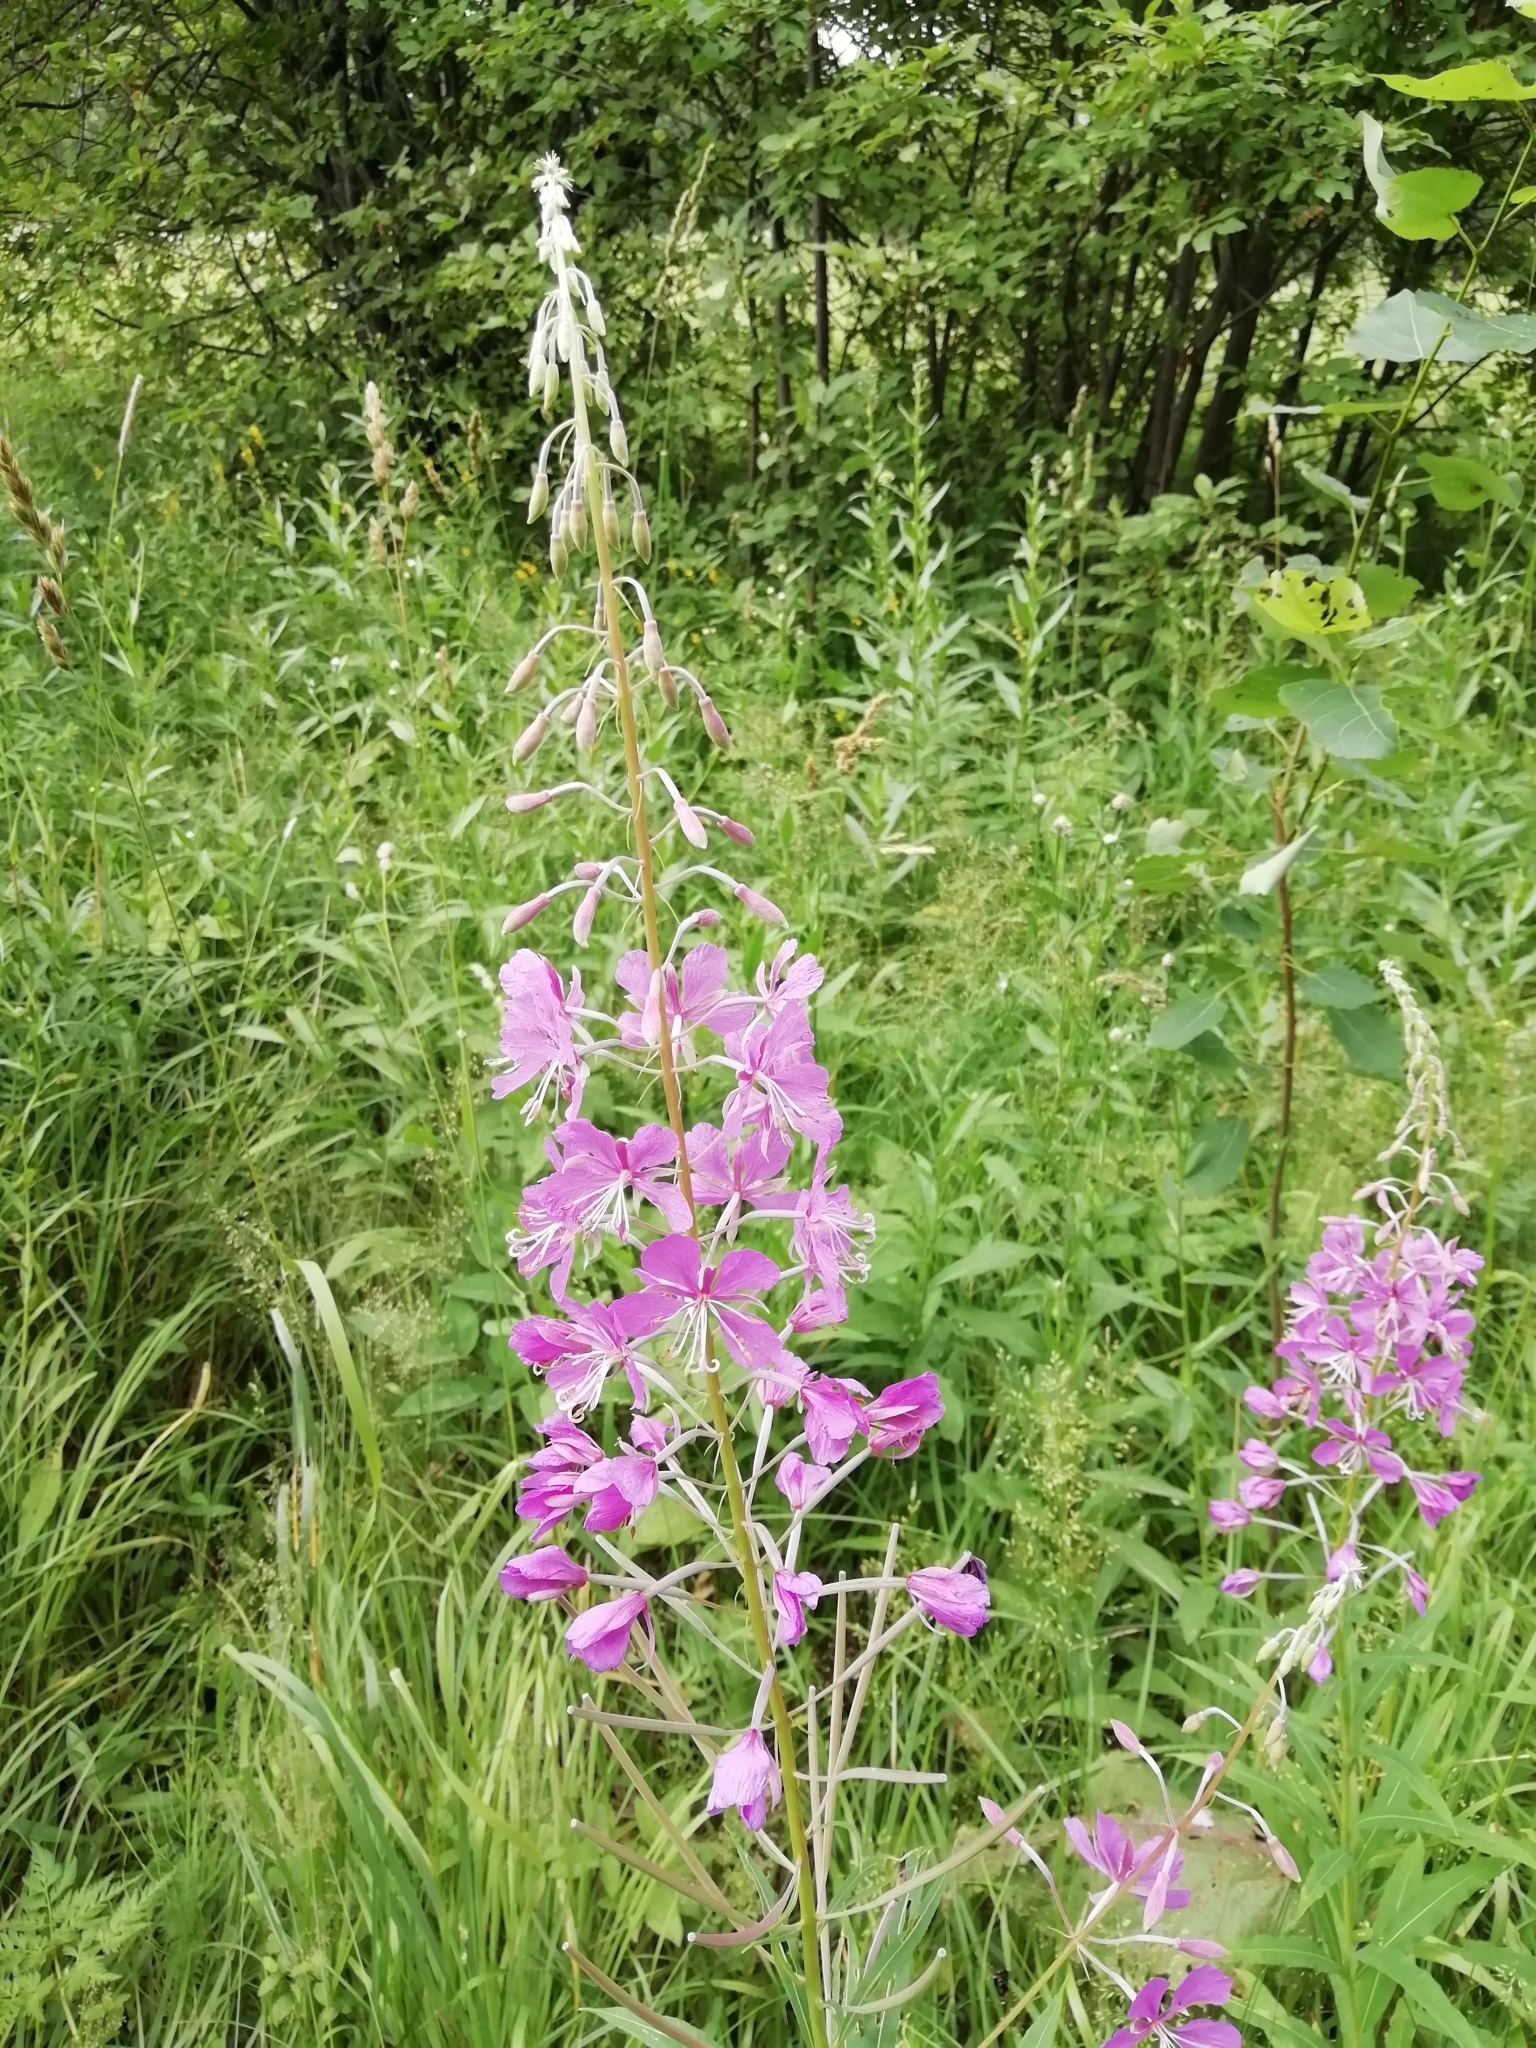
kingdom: Plantae
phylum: Tracheophyta
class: Magnoliopsida
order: Myrtales
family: Onagraceae
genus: Chamaenerion
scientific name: Chamaenerion angustifolium
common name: Fireweed
